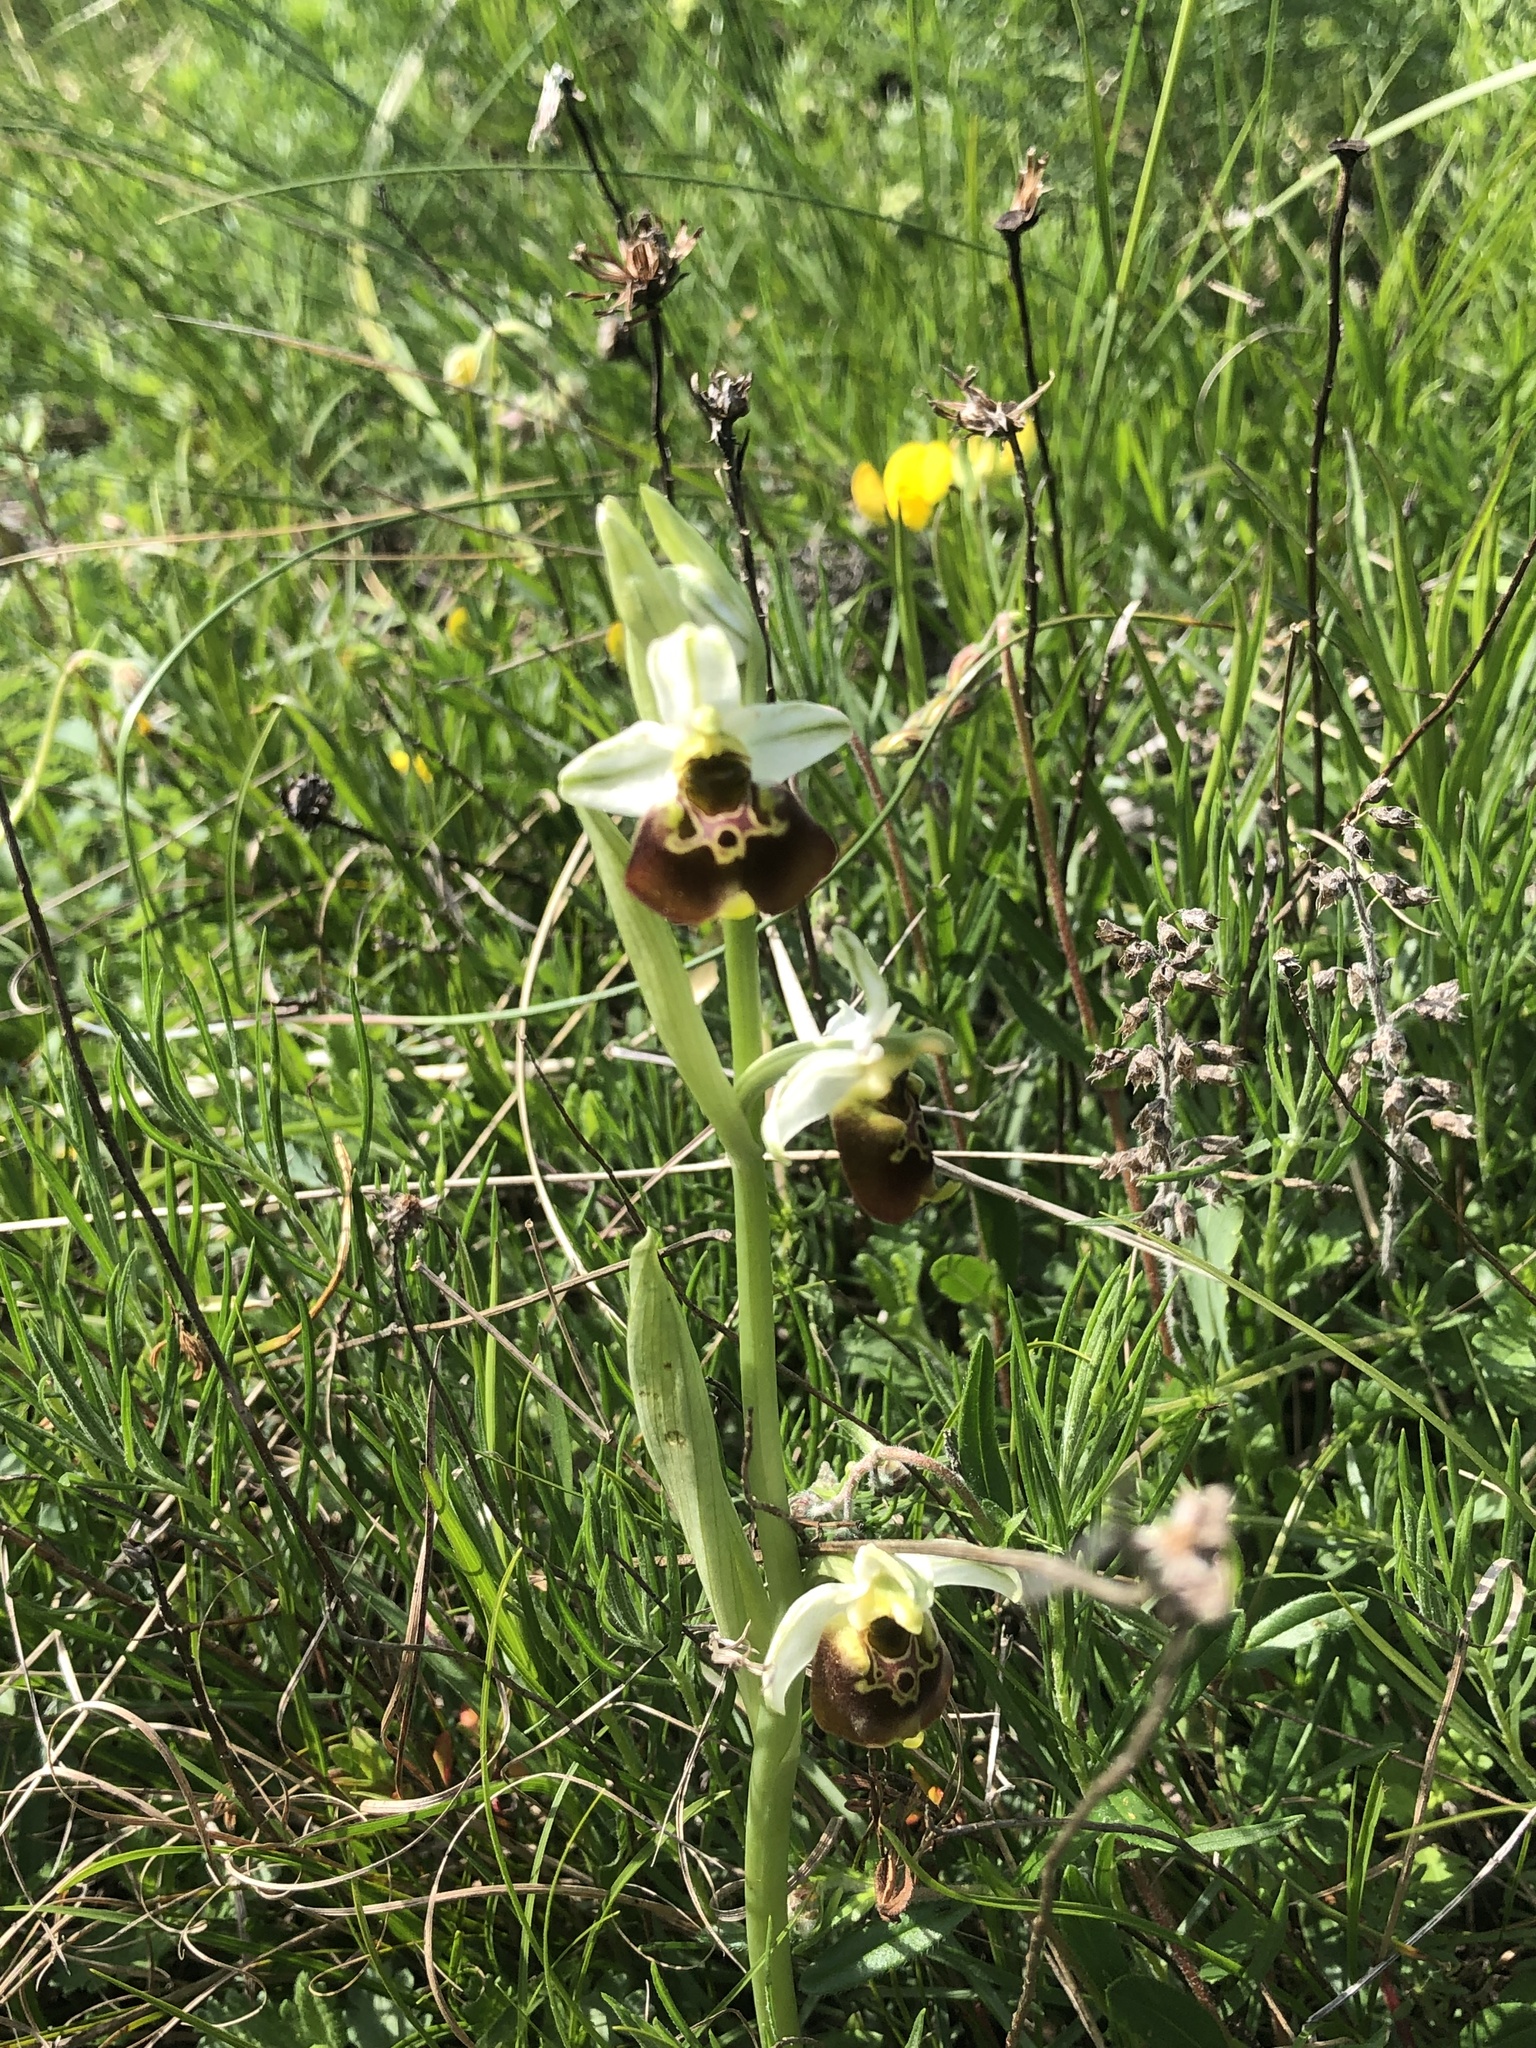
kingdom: Plantae
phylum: Tracheophyta
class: Liliopsida
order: Asparagales
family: Orchidaceae
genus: Ophrys
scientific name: Ophrys holosericea
